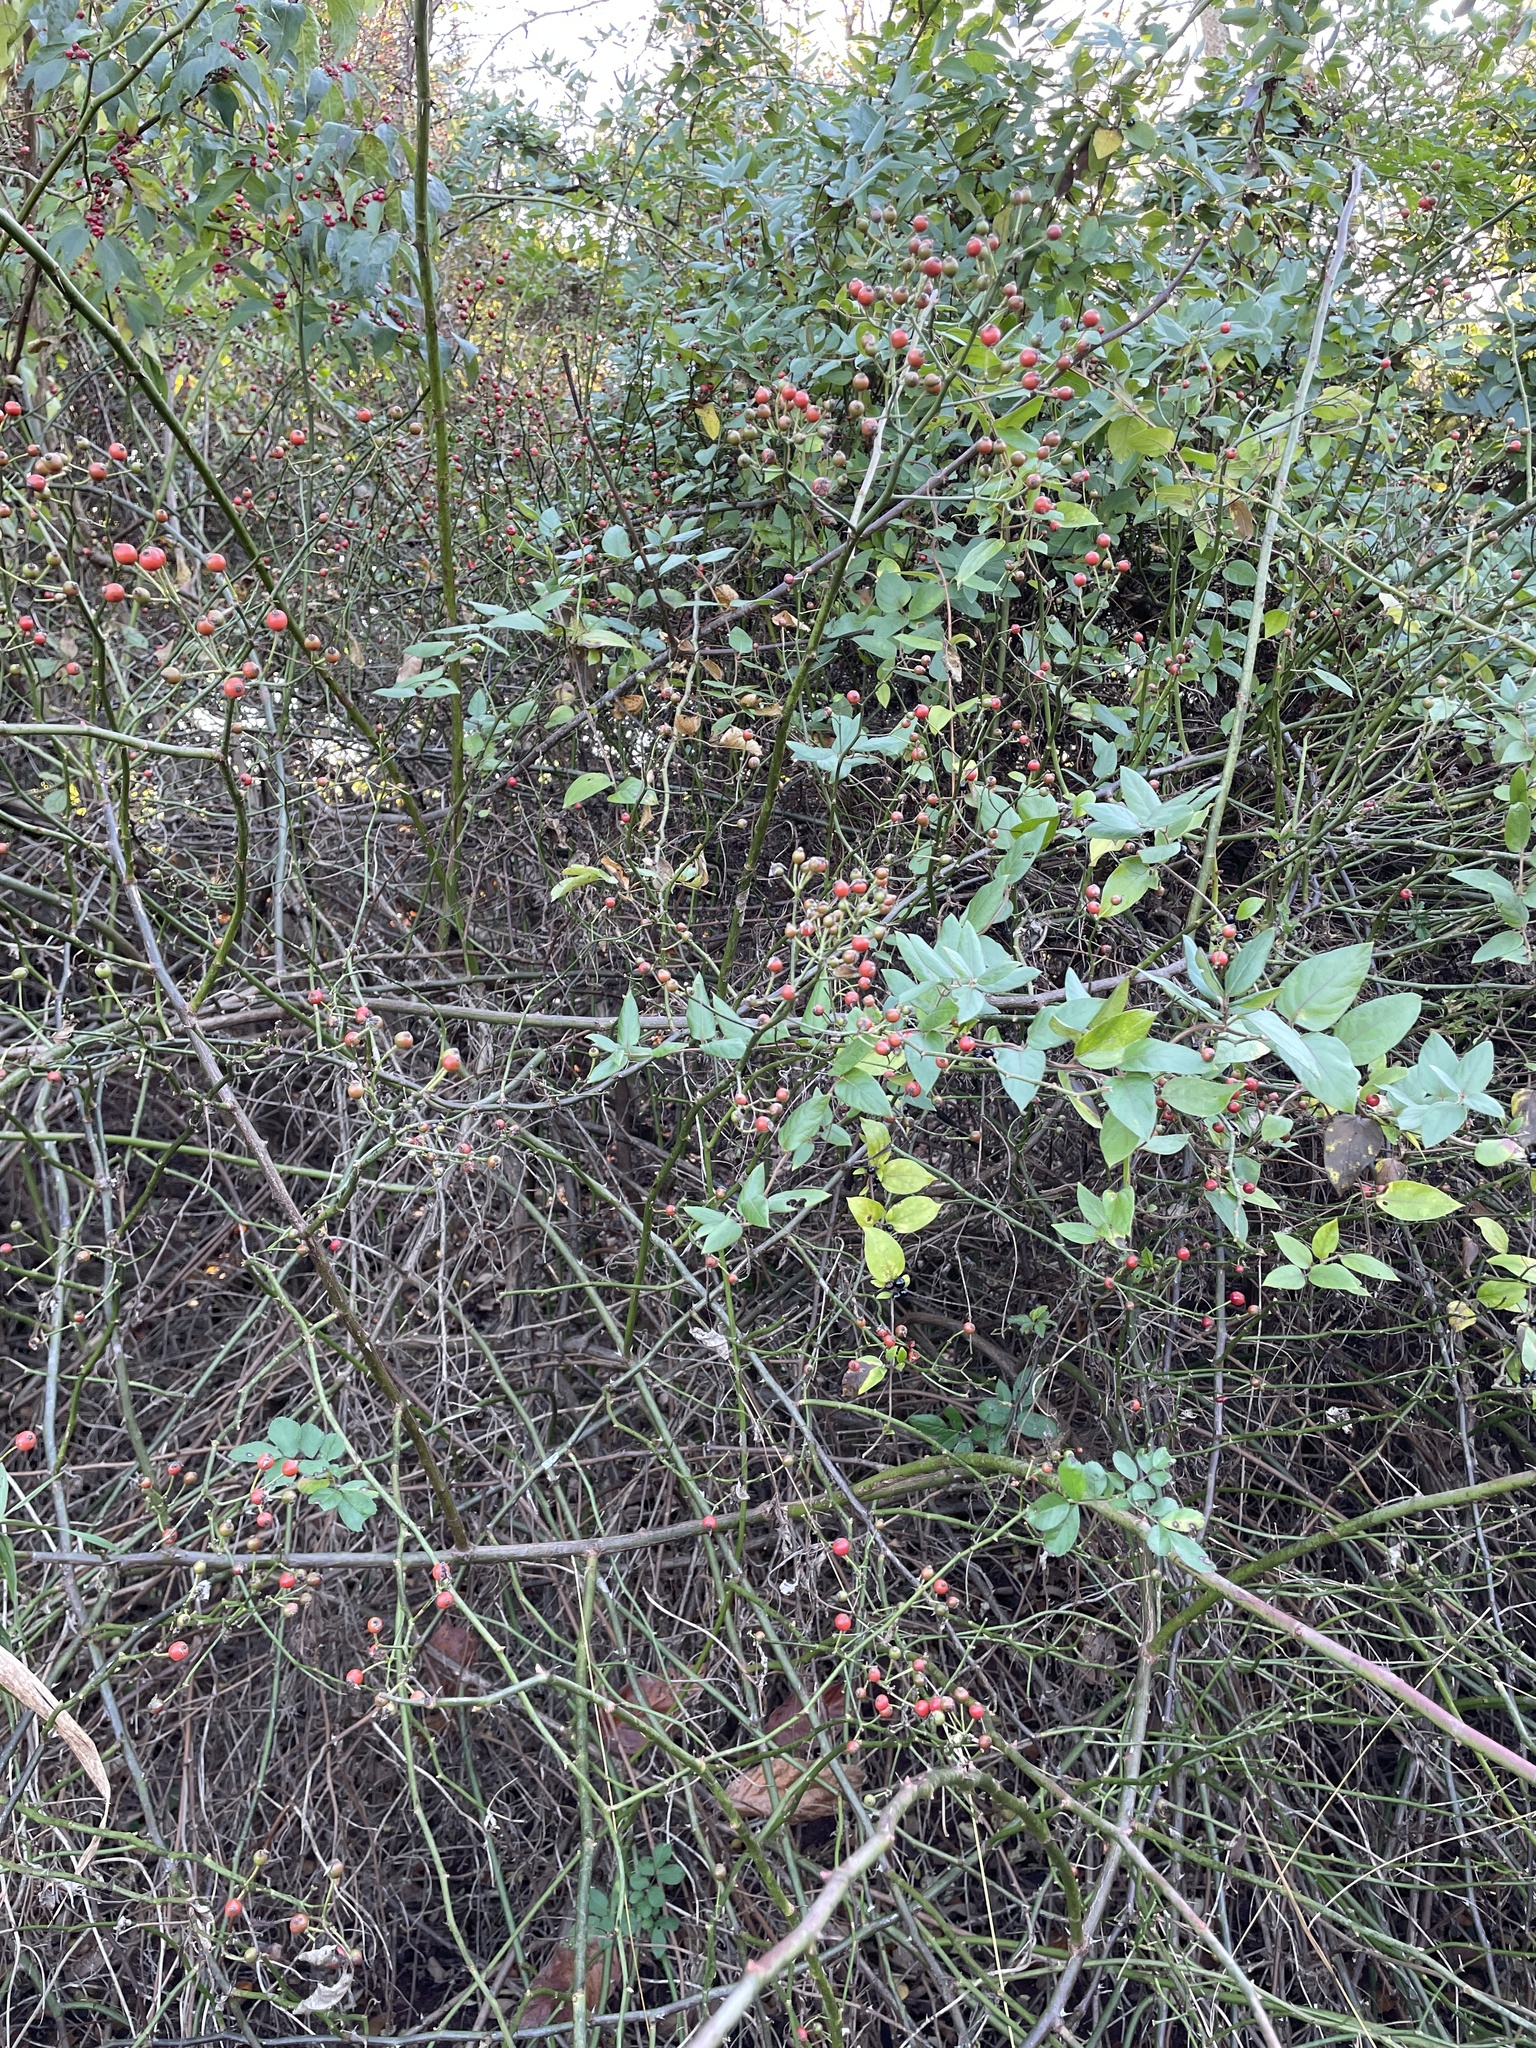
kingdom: Plantae
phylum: Tracheophyta
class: Magnoliopsida
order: Rosales
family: Rosaceae
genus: Rosa
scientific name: Rosa multiflora
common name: Multiflora rose
